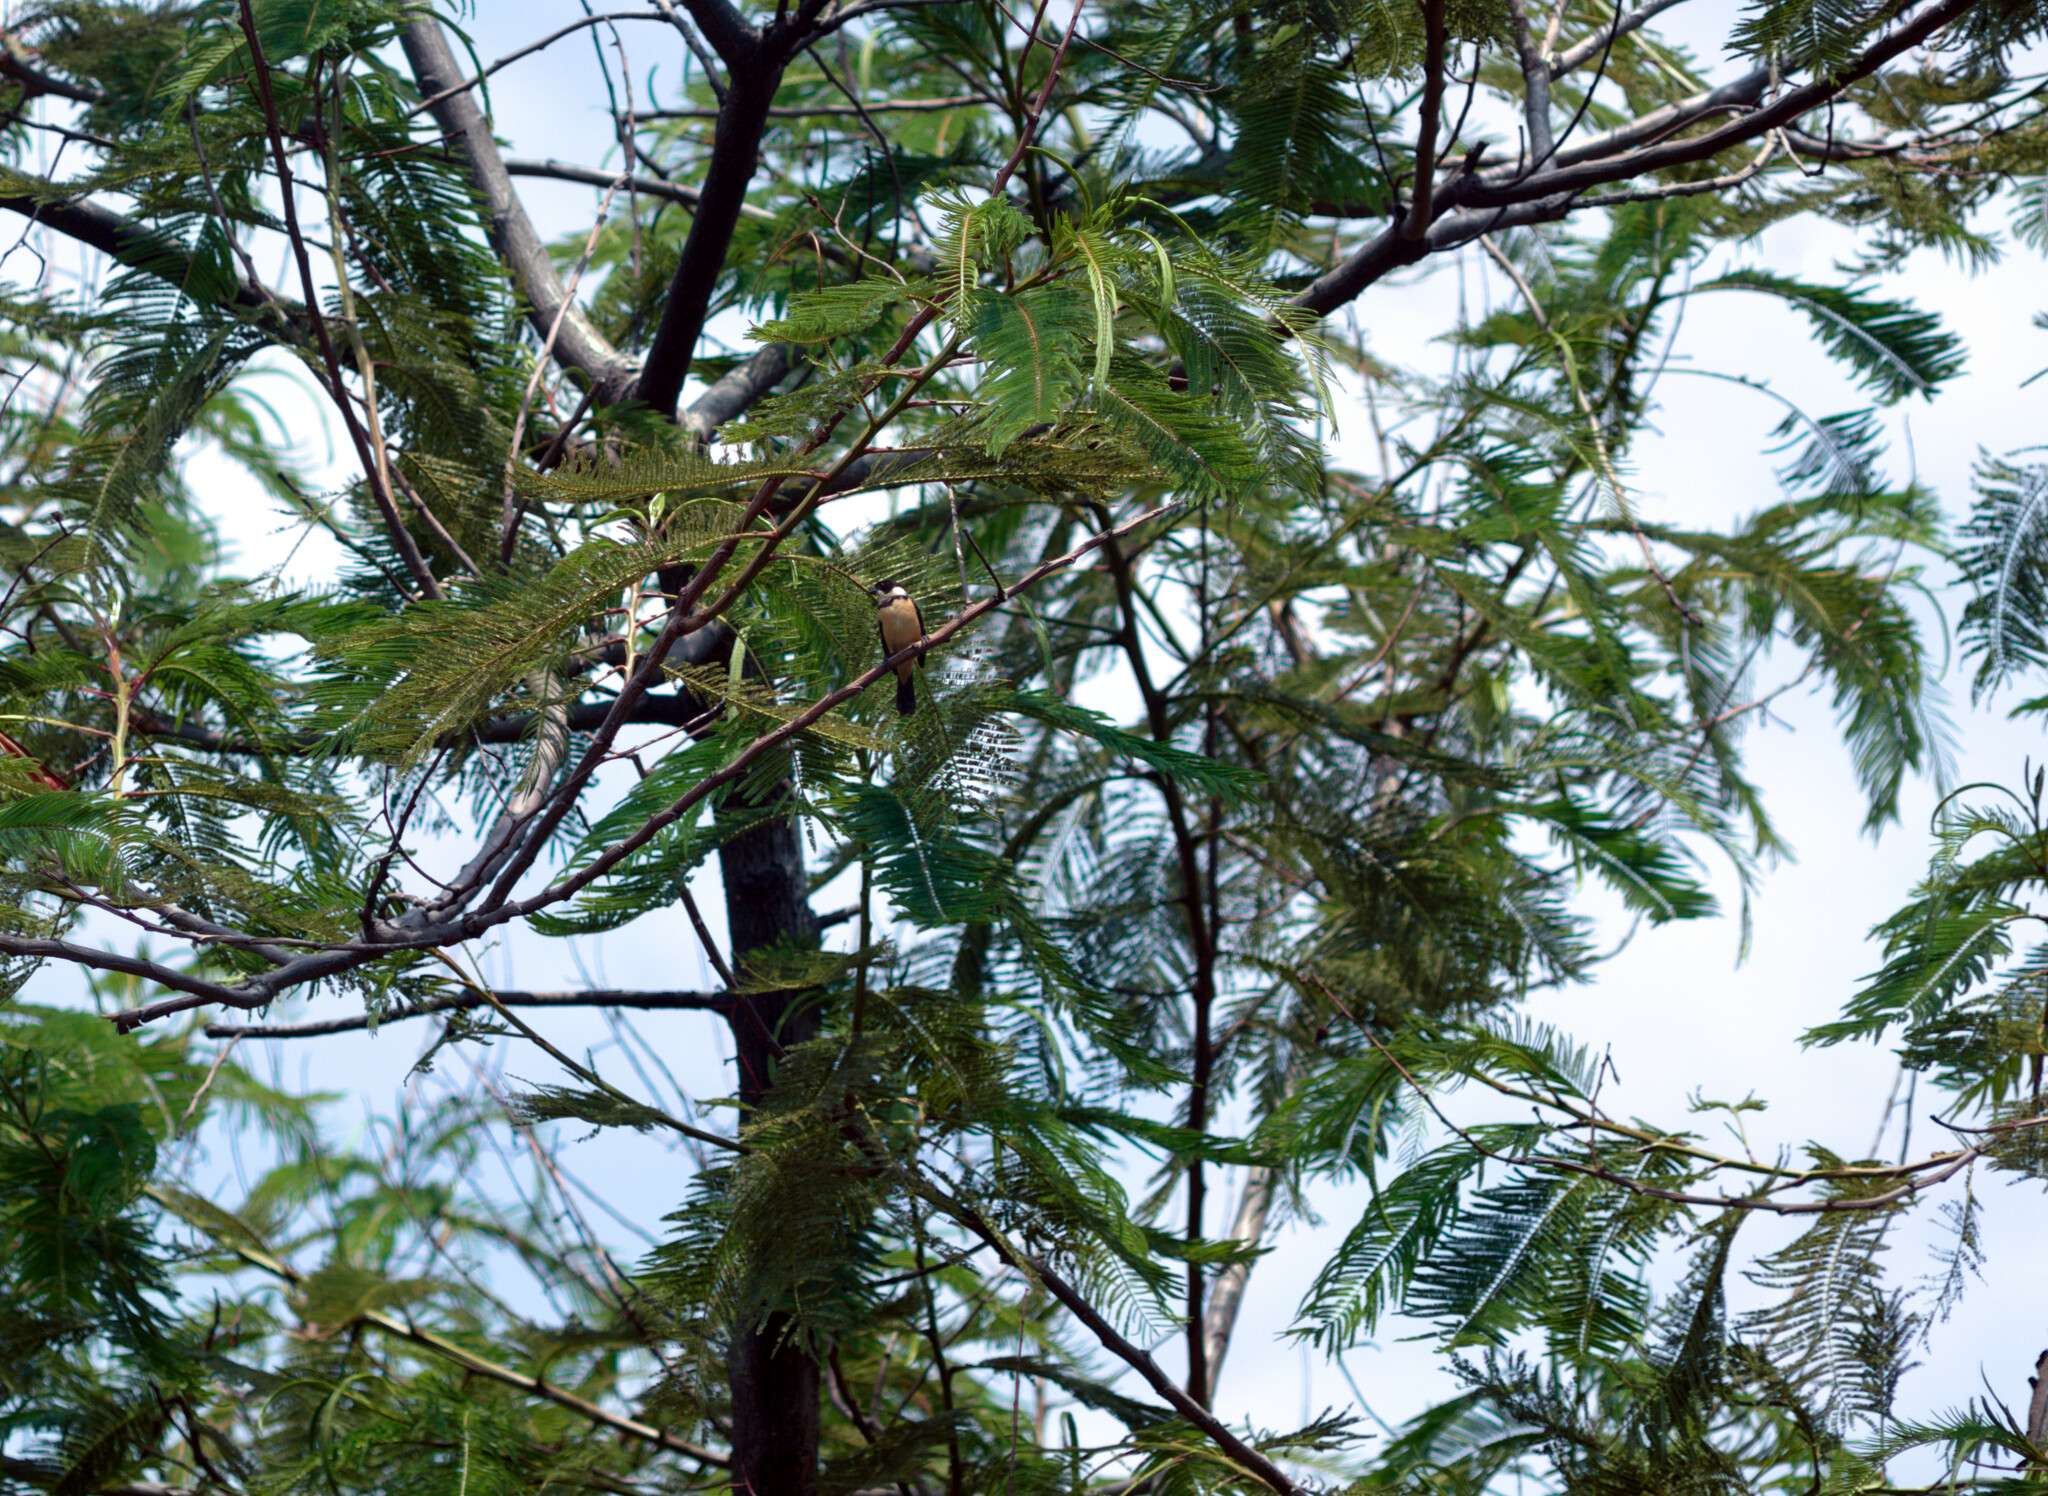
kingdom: Animalia
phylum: Chordata
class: Aves
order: Passeriformes
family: Thraupidae
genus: Sporophila
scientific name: Sporophila torqueola
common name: White-collared seedeater
